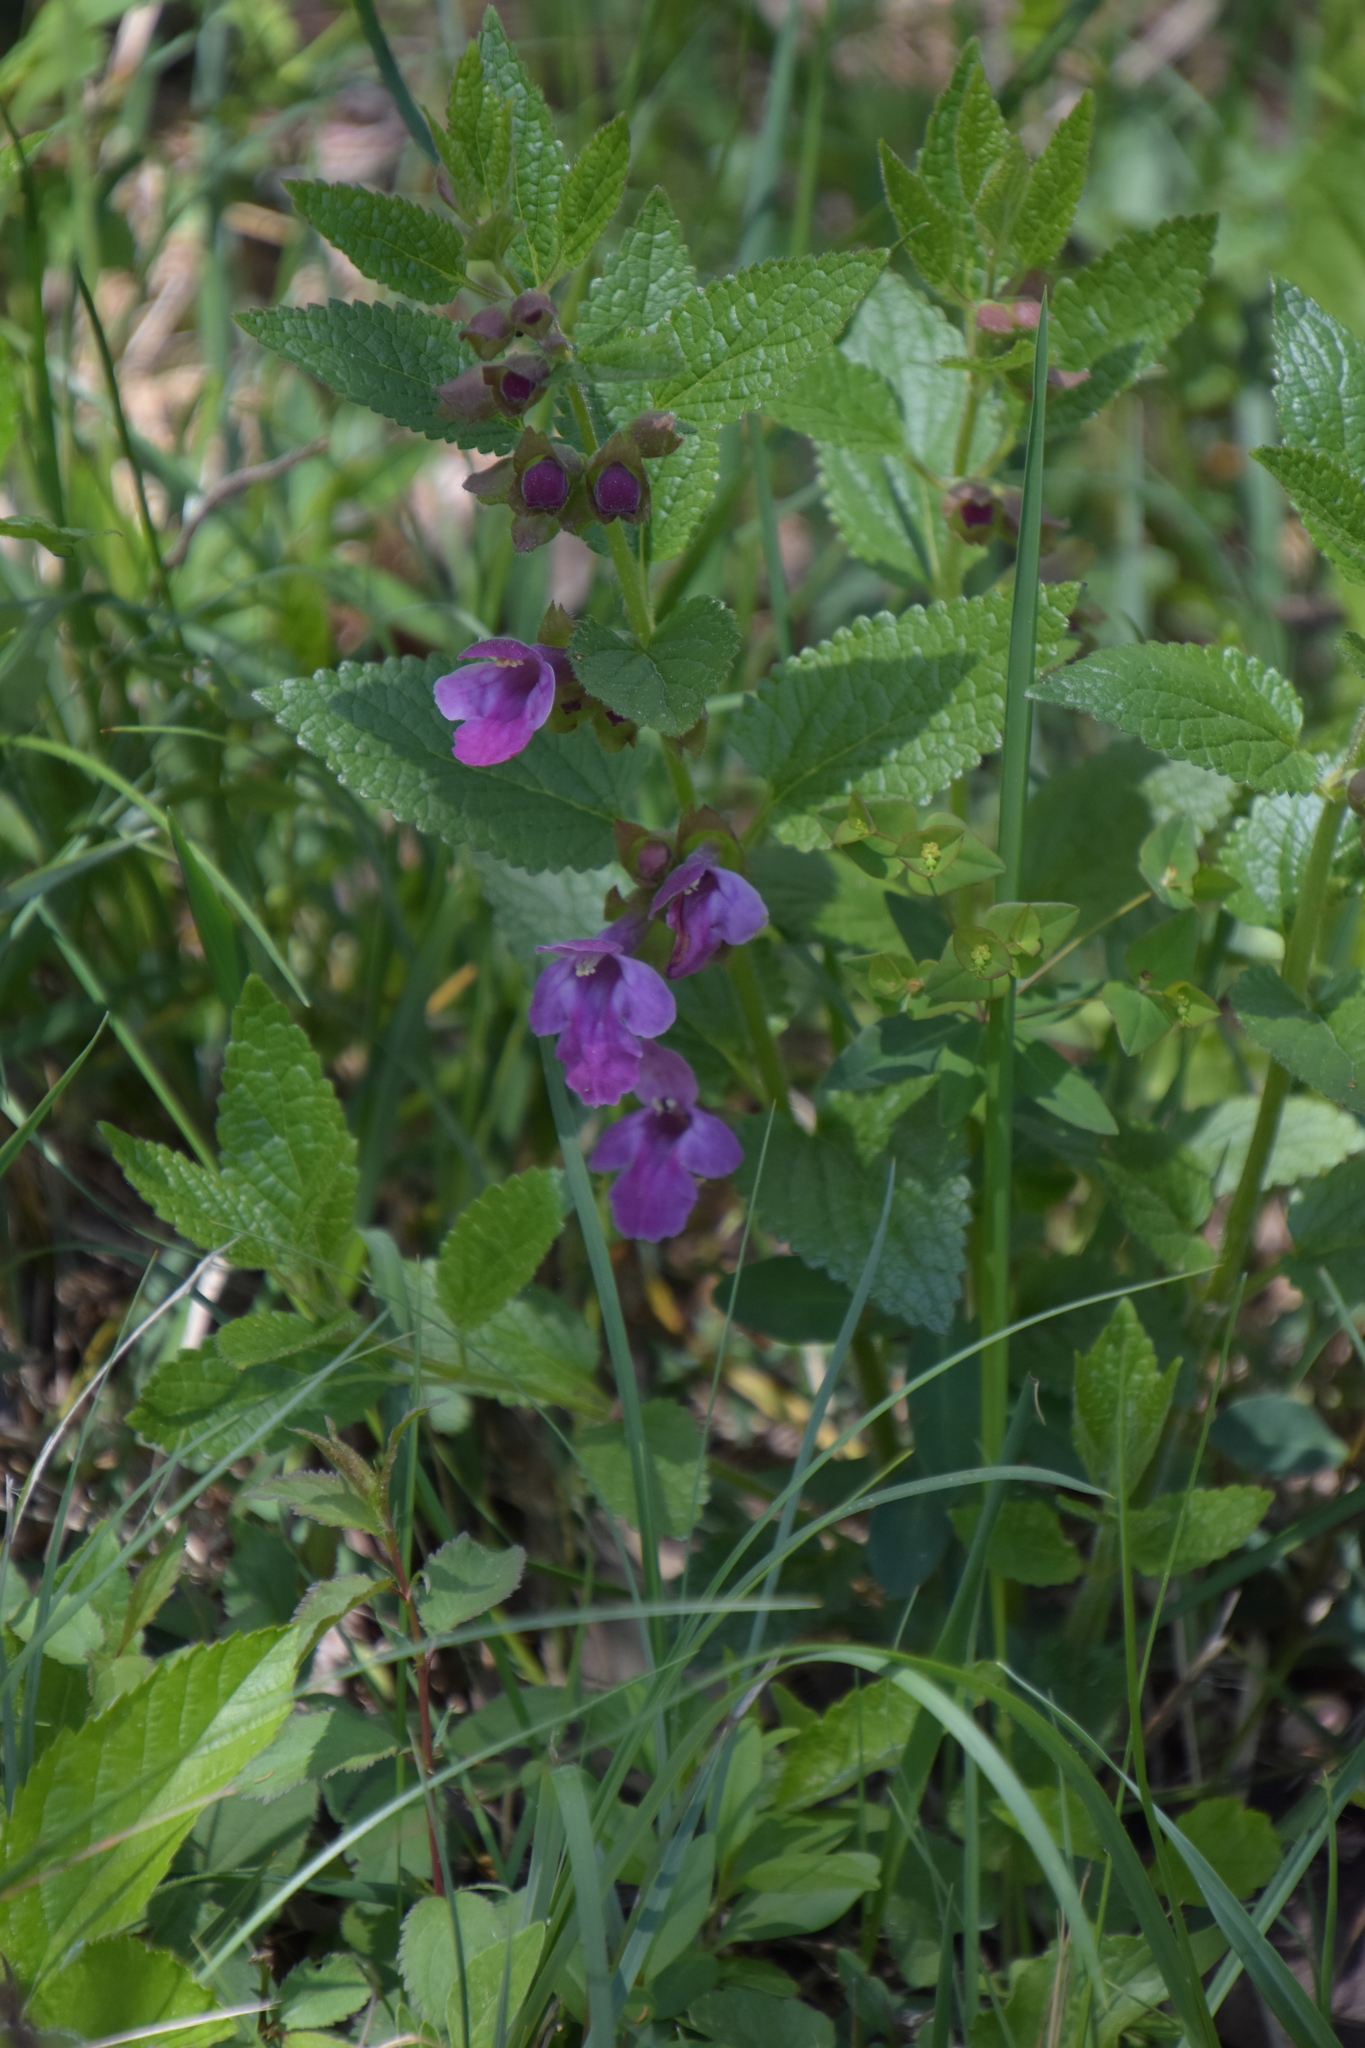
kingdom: Plantae
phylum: Tracheophyta
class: Magnoliopsida
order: Lamiales
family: Lamiaceae
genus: Melittis
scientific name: Melittis melissophyllum
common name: Bastard balm
